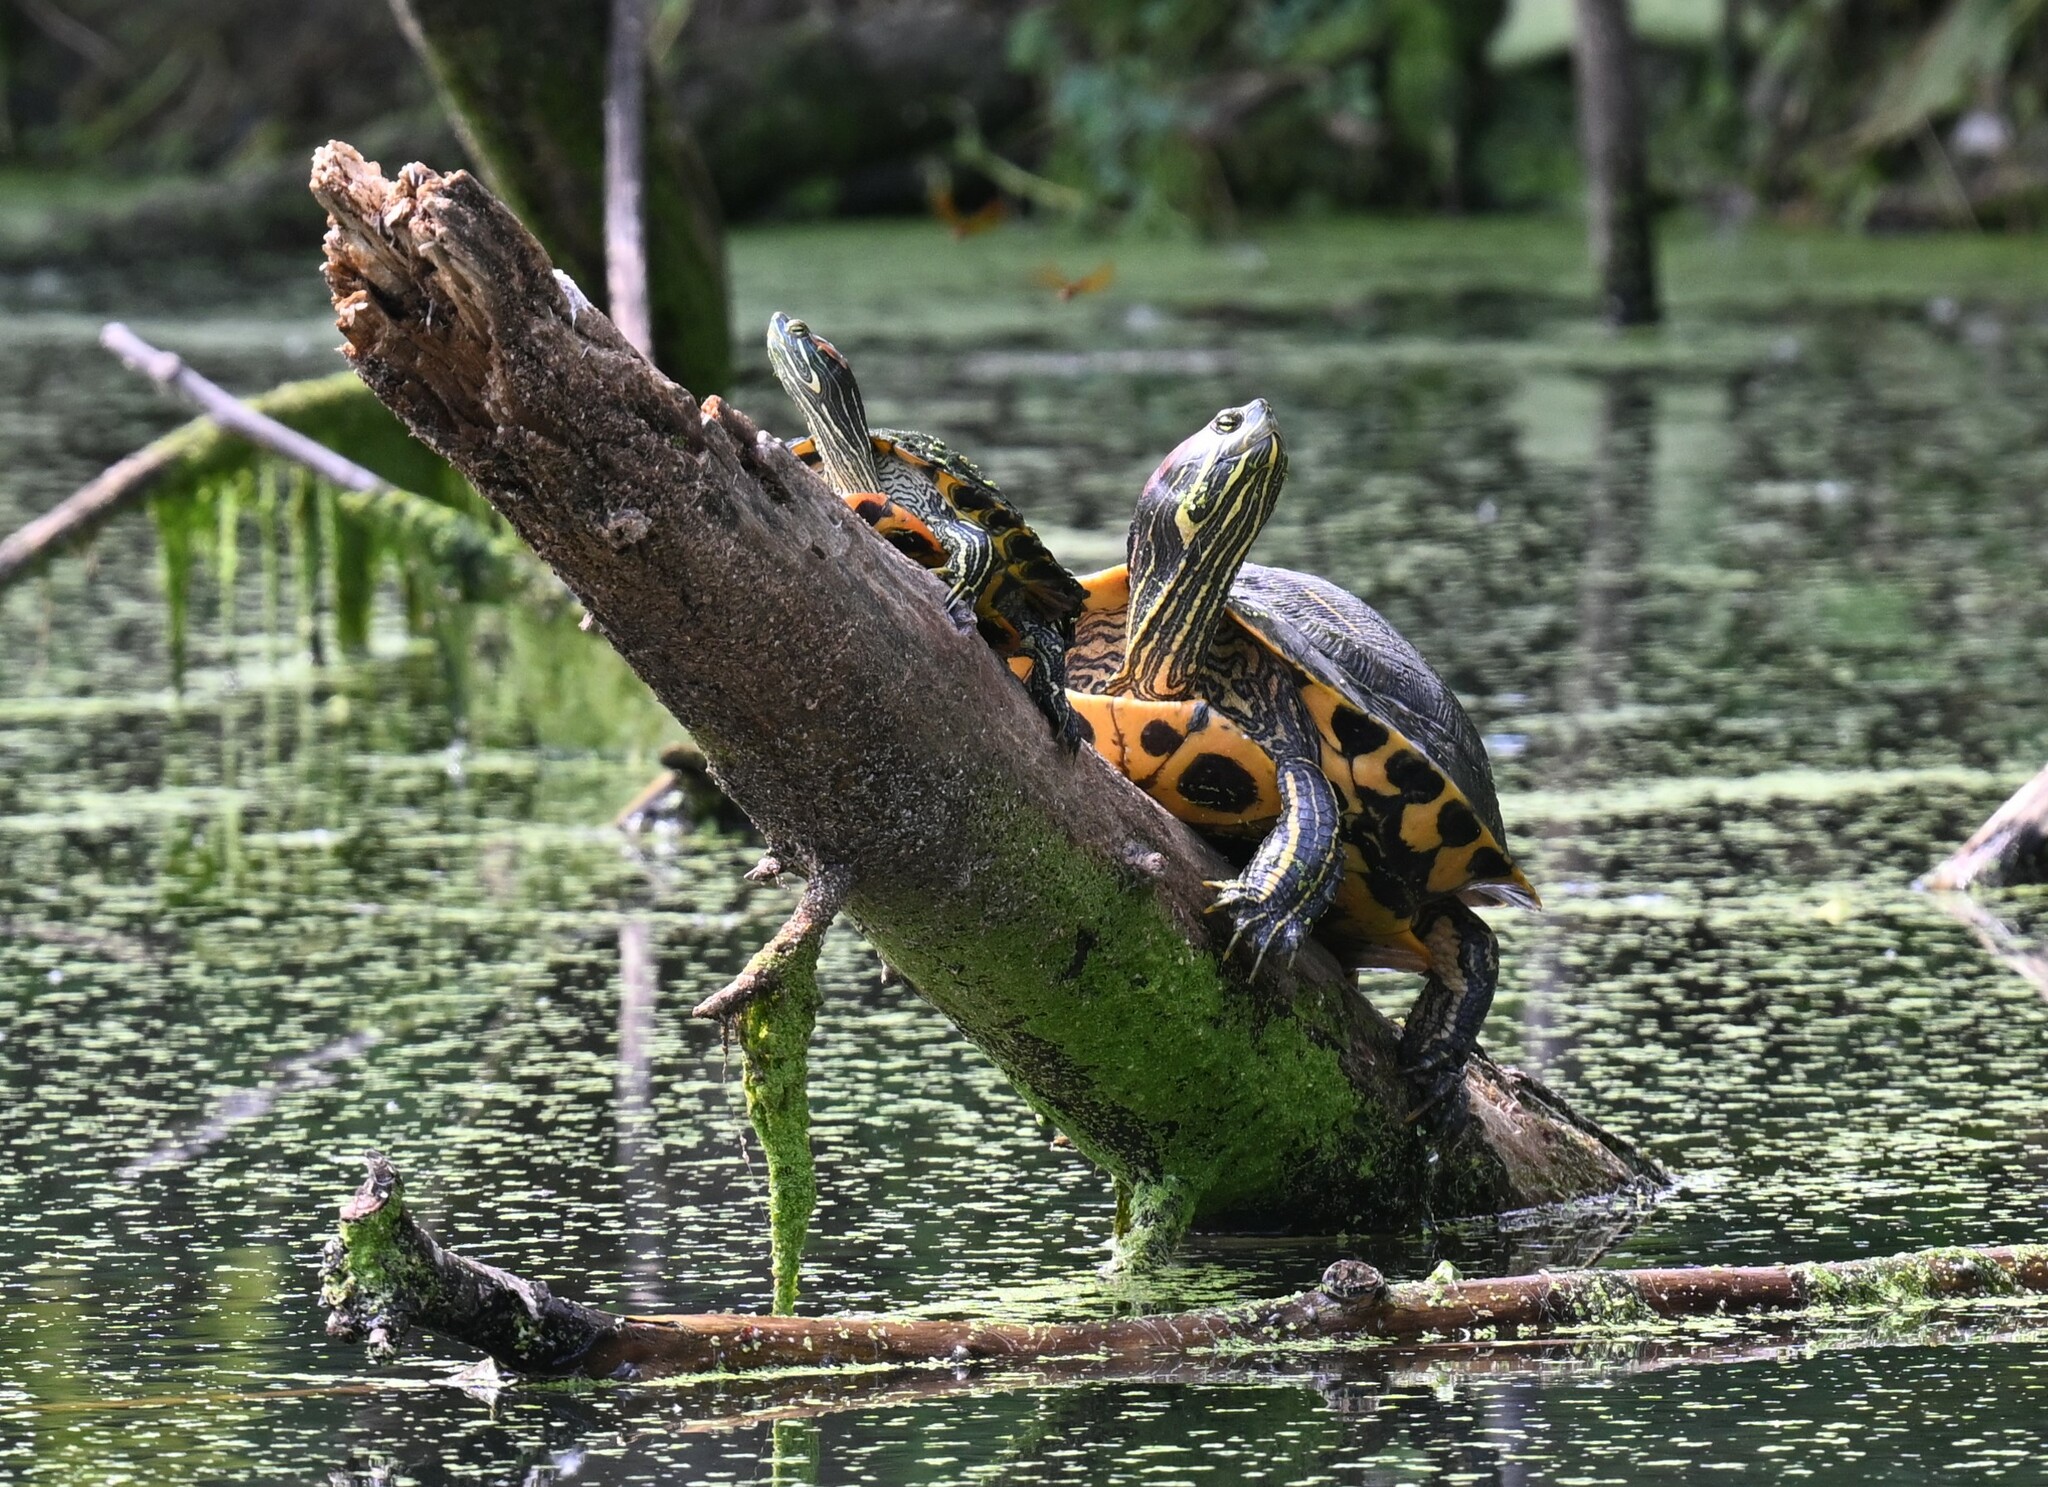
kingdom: Animalia
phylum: Chordata
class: Testudines
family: Emydidae
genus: Trachemys
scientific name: Trachemys scripta
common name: Slider
